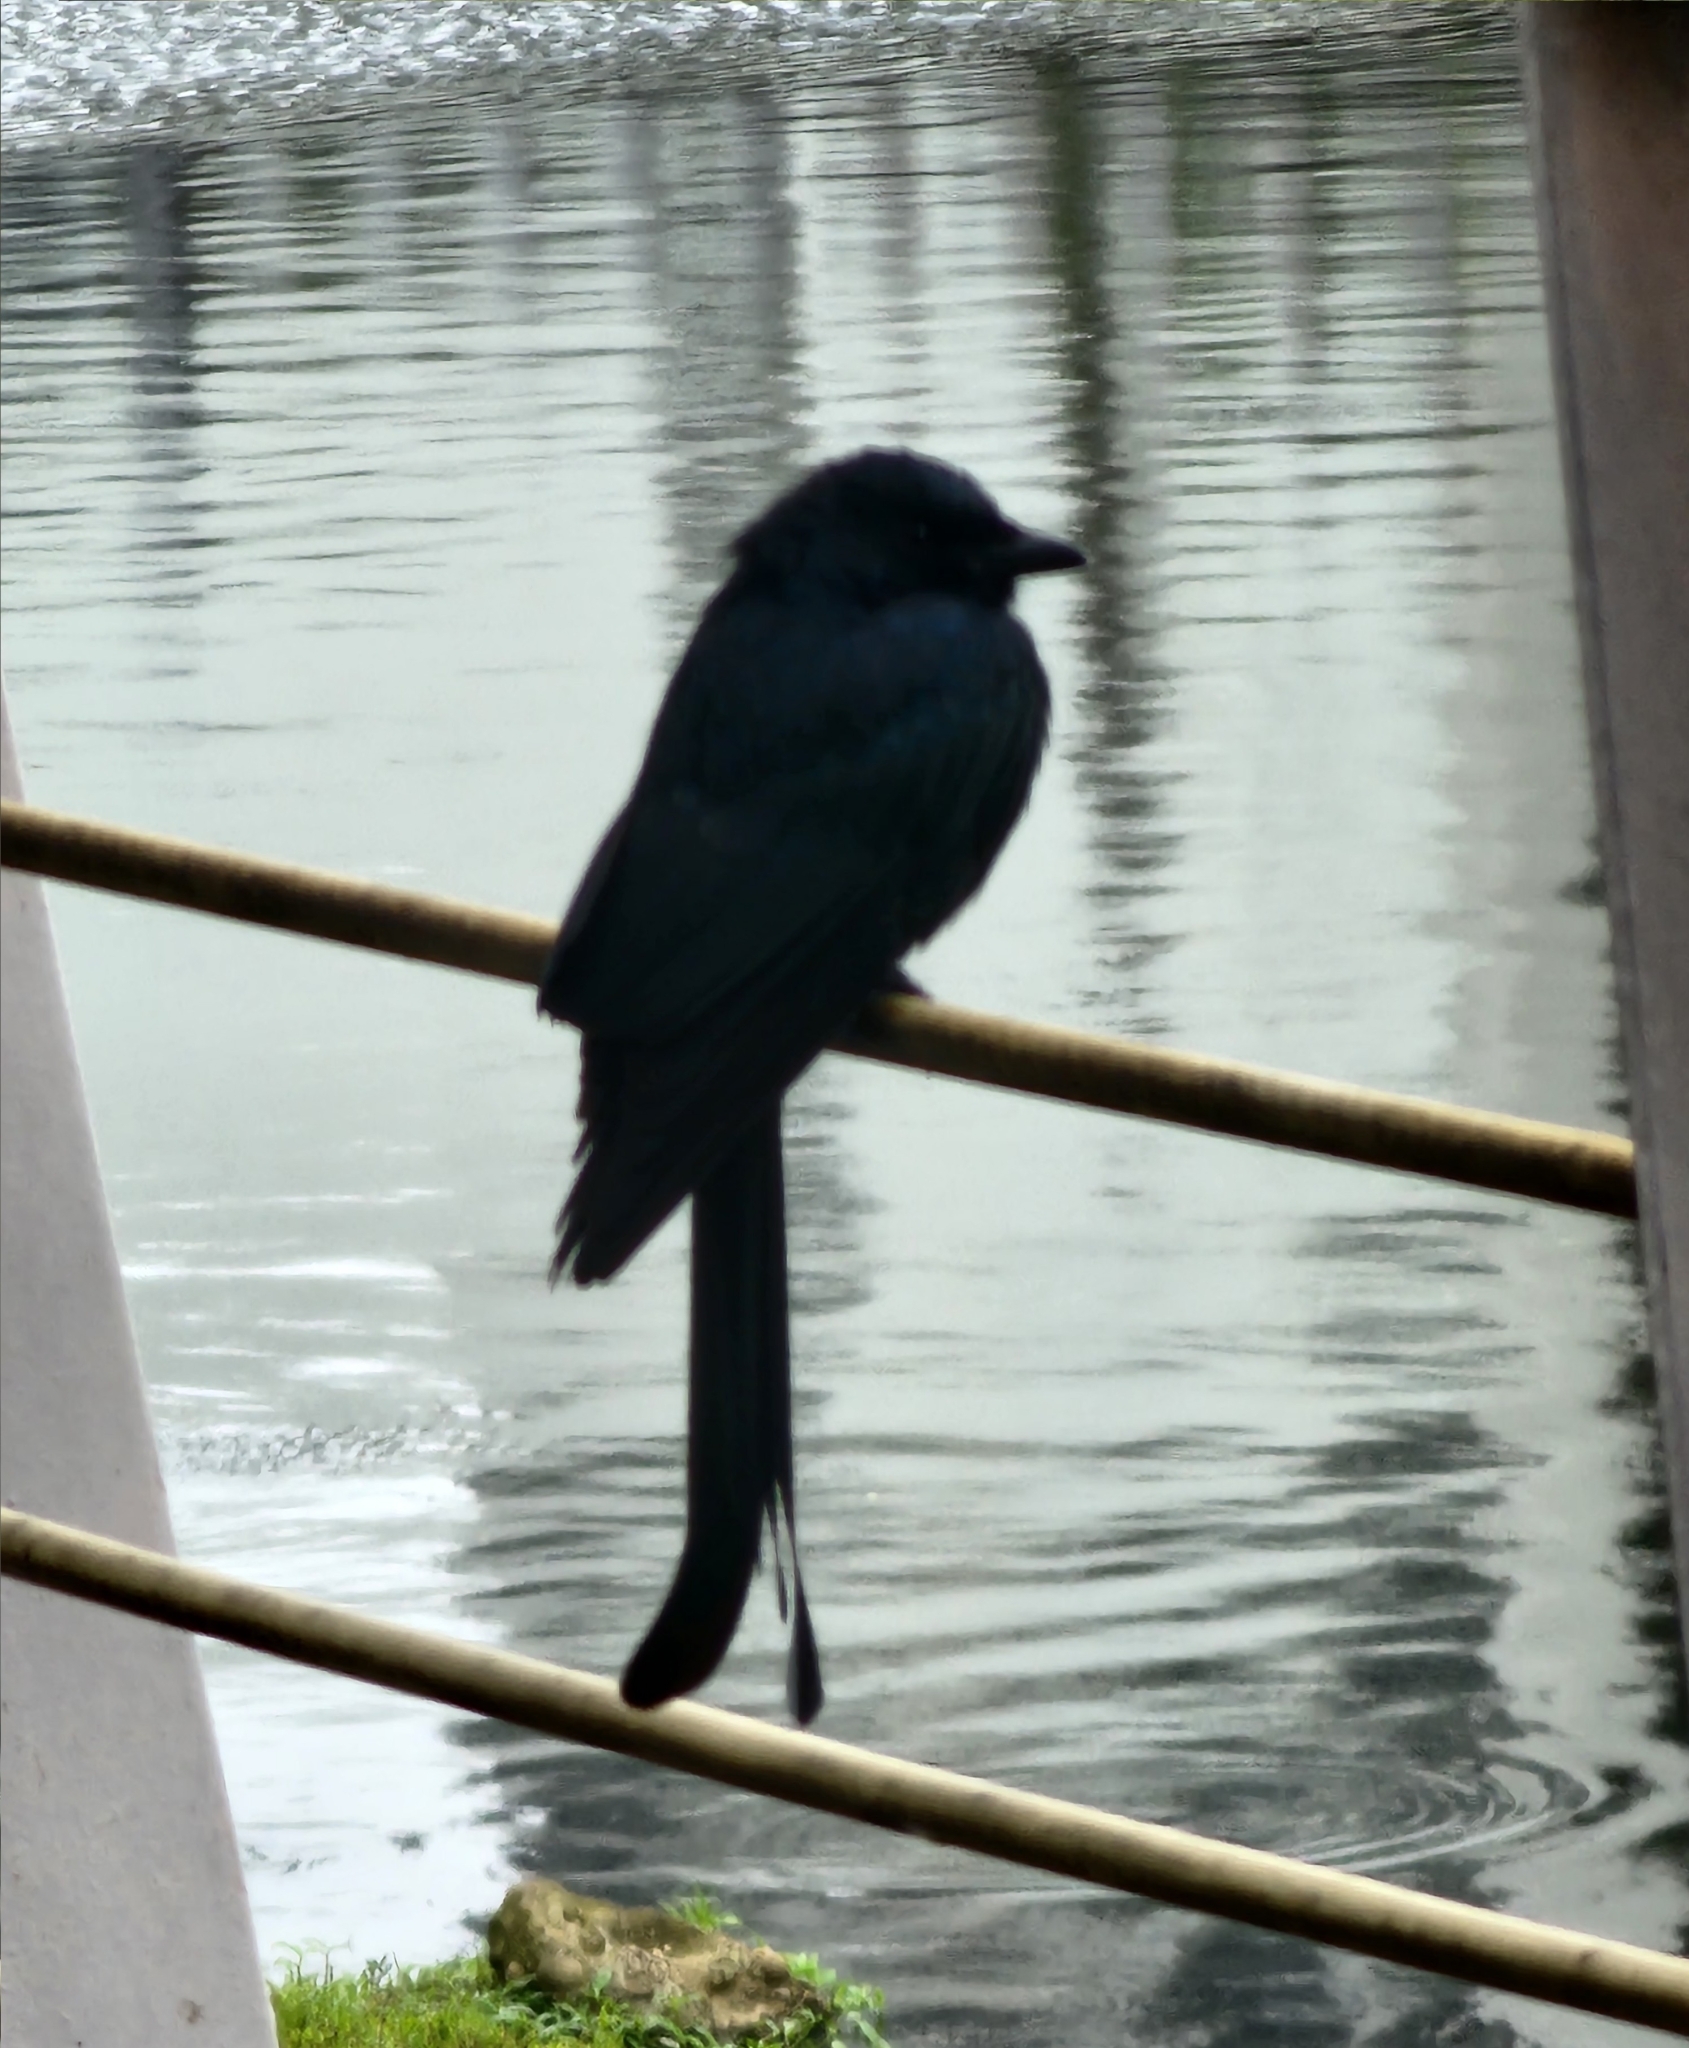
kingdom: Animalia
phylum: Chordata
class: Aves
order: Passeriformes
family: Dicruridae
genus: Dicrurus
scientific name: Dicrurus macrocercus
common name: Black drongo
